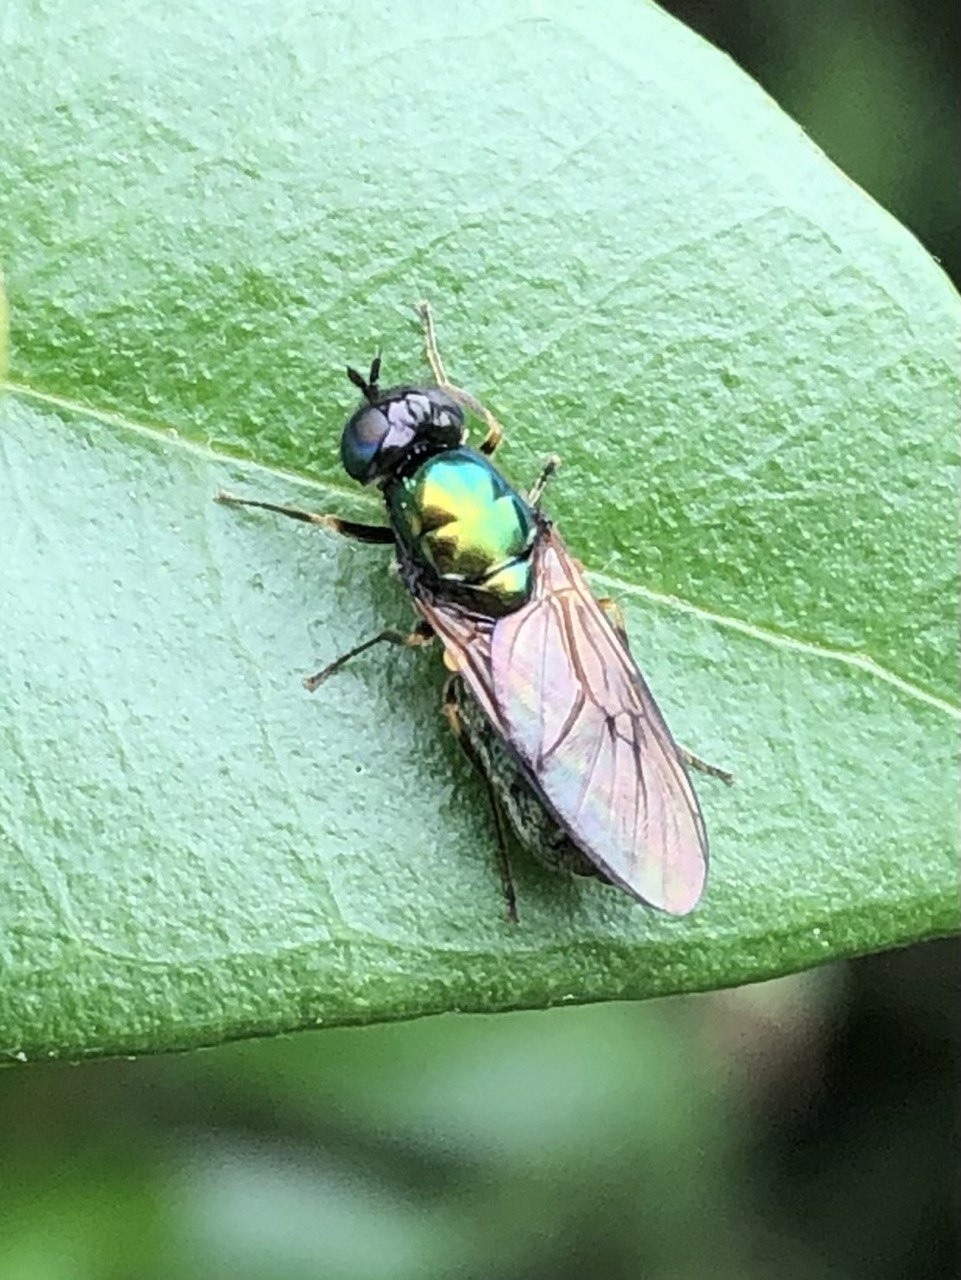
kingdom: Animalia
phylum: Arthropoda
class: Insecta
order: Diptera
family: Stratiomyidae
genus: Chloromyia
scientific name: Chloromyia formosa
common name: Soldier fly
